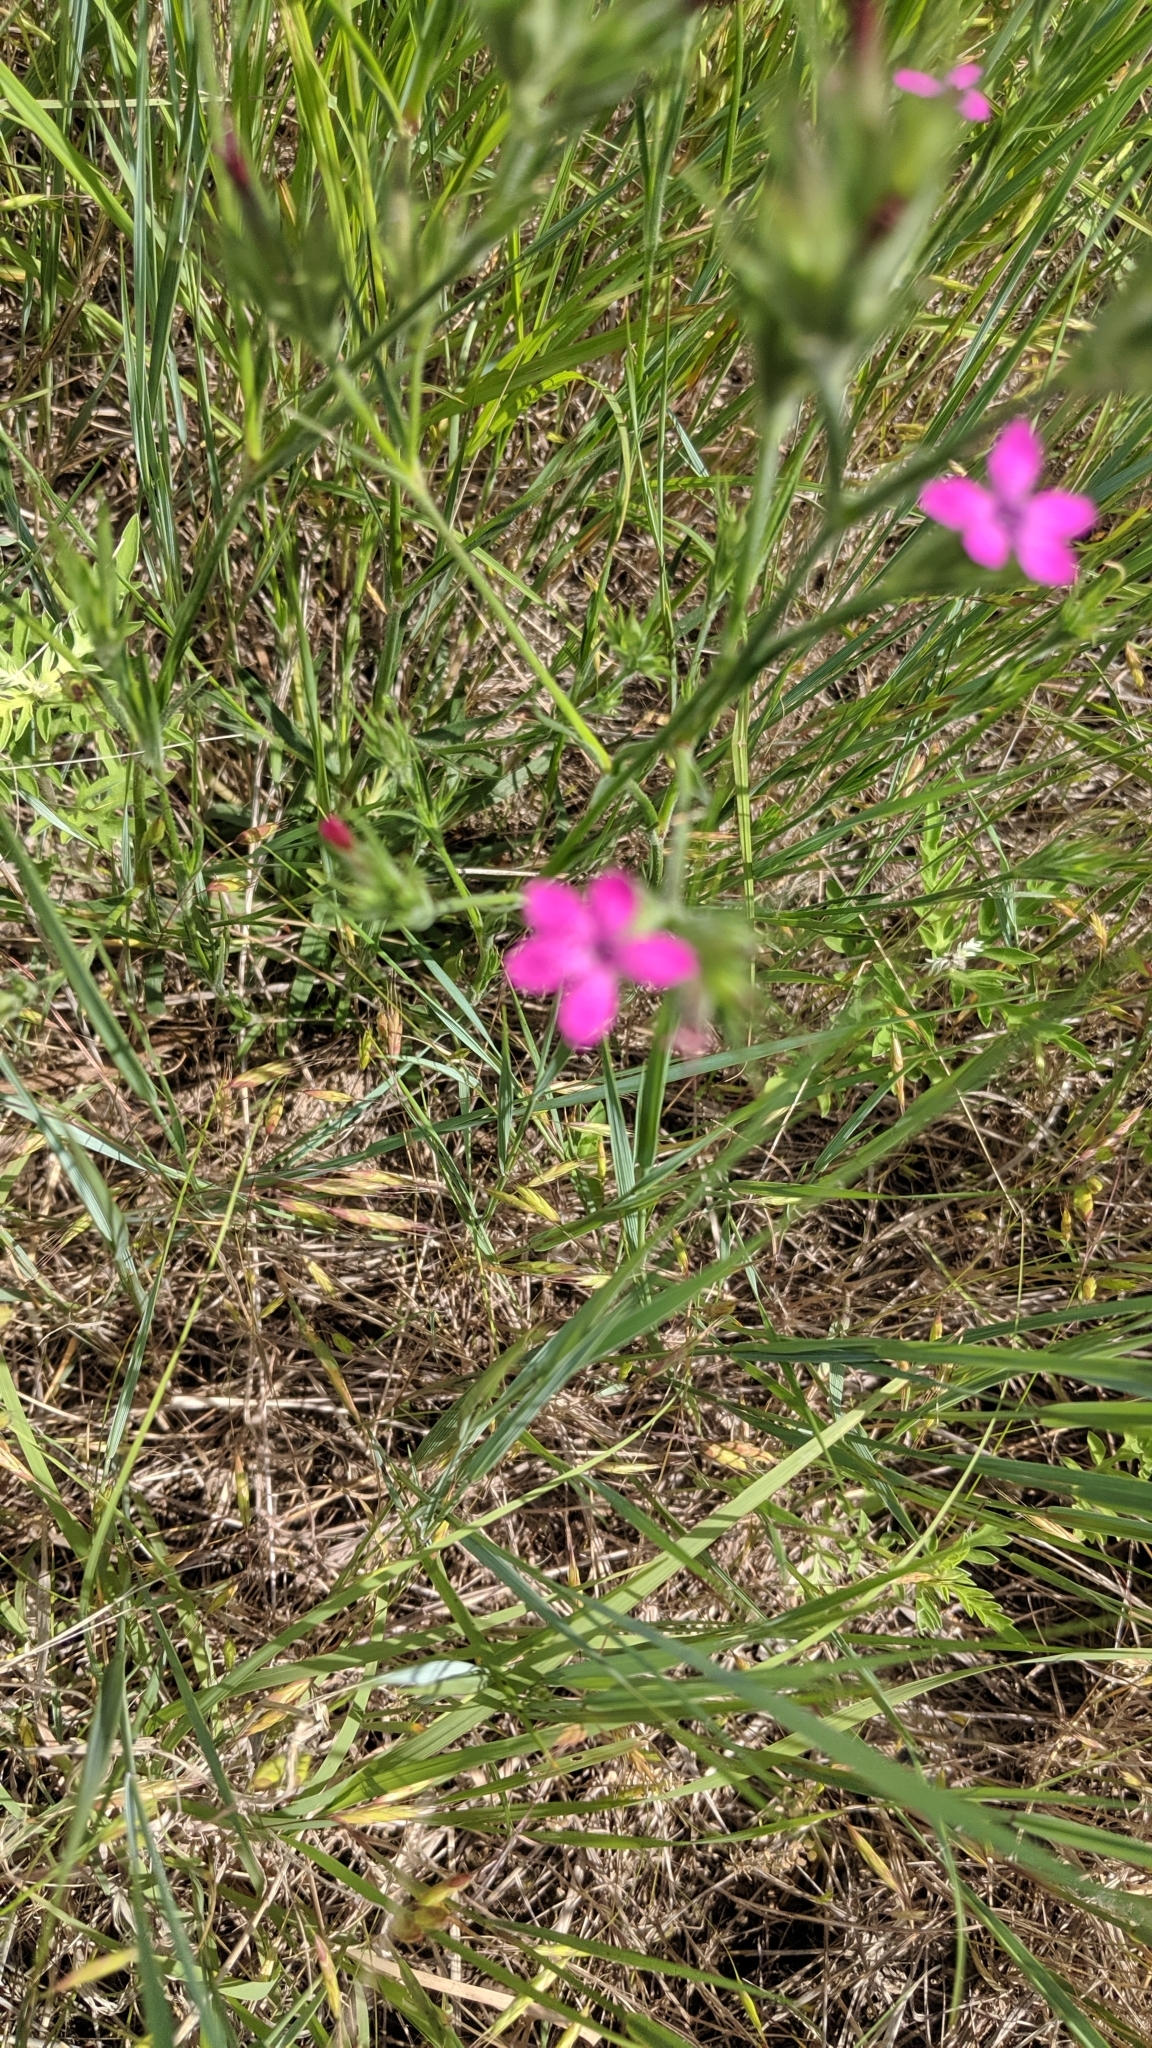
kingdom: Plantae
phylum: Tracheophyta
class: Magnoliopsida
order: Caryophyllales
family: Caryophyllaceae
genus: Dianthus
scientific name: Dianthus armeria
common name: Deptford pink
